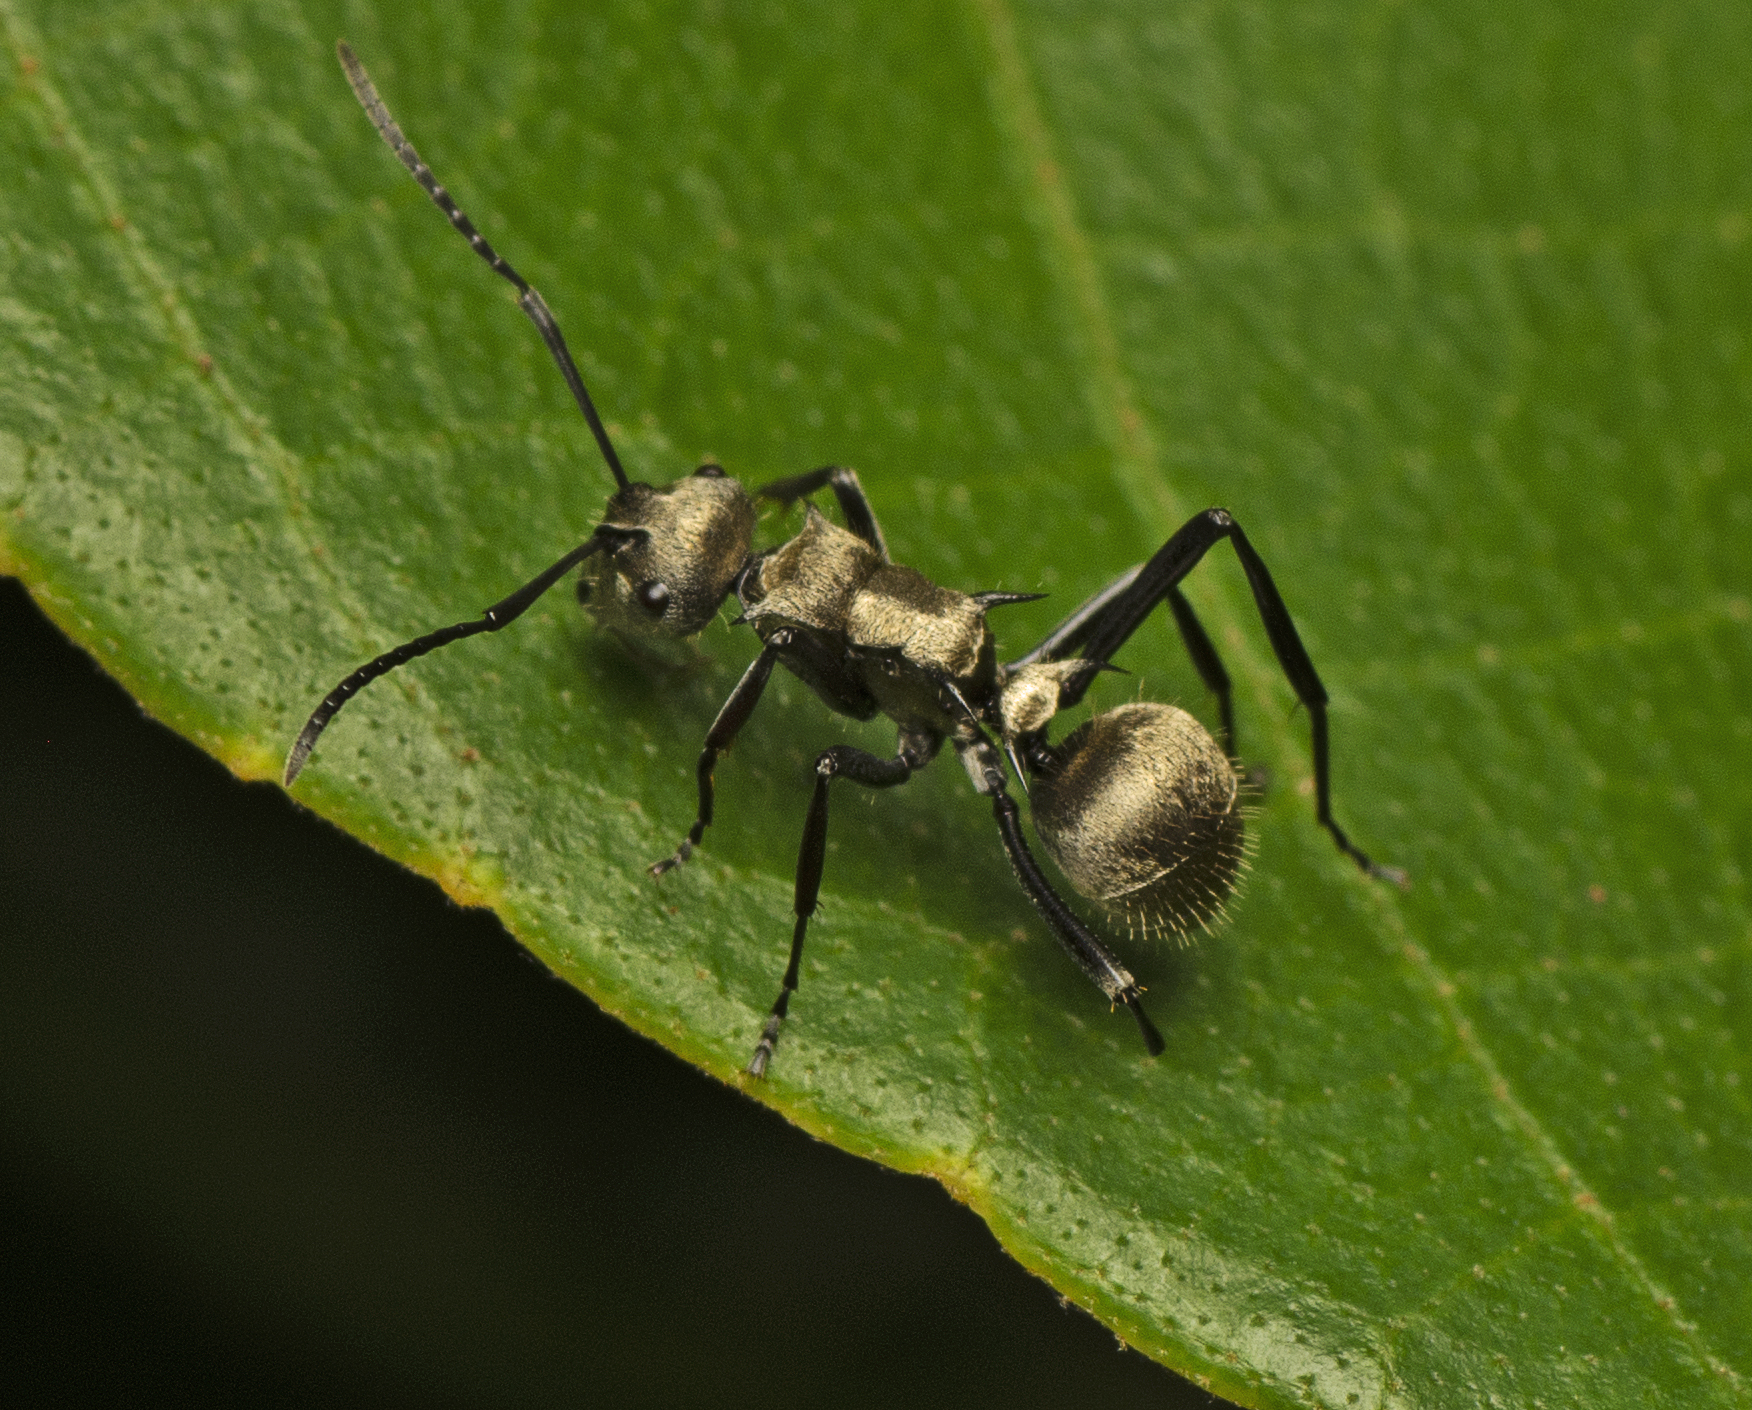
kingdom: Animalia
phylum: Arthropoda
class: Insecta
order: Hymenoptera
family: Formicidae
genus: Polyrhachis
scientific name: Polyrhachis cupreata
